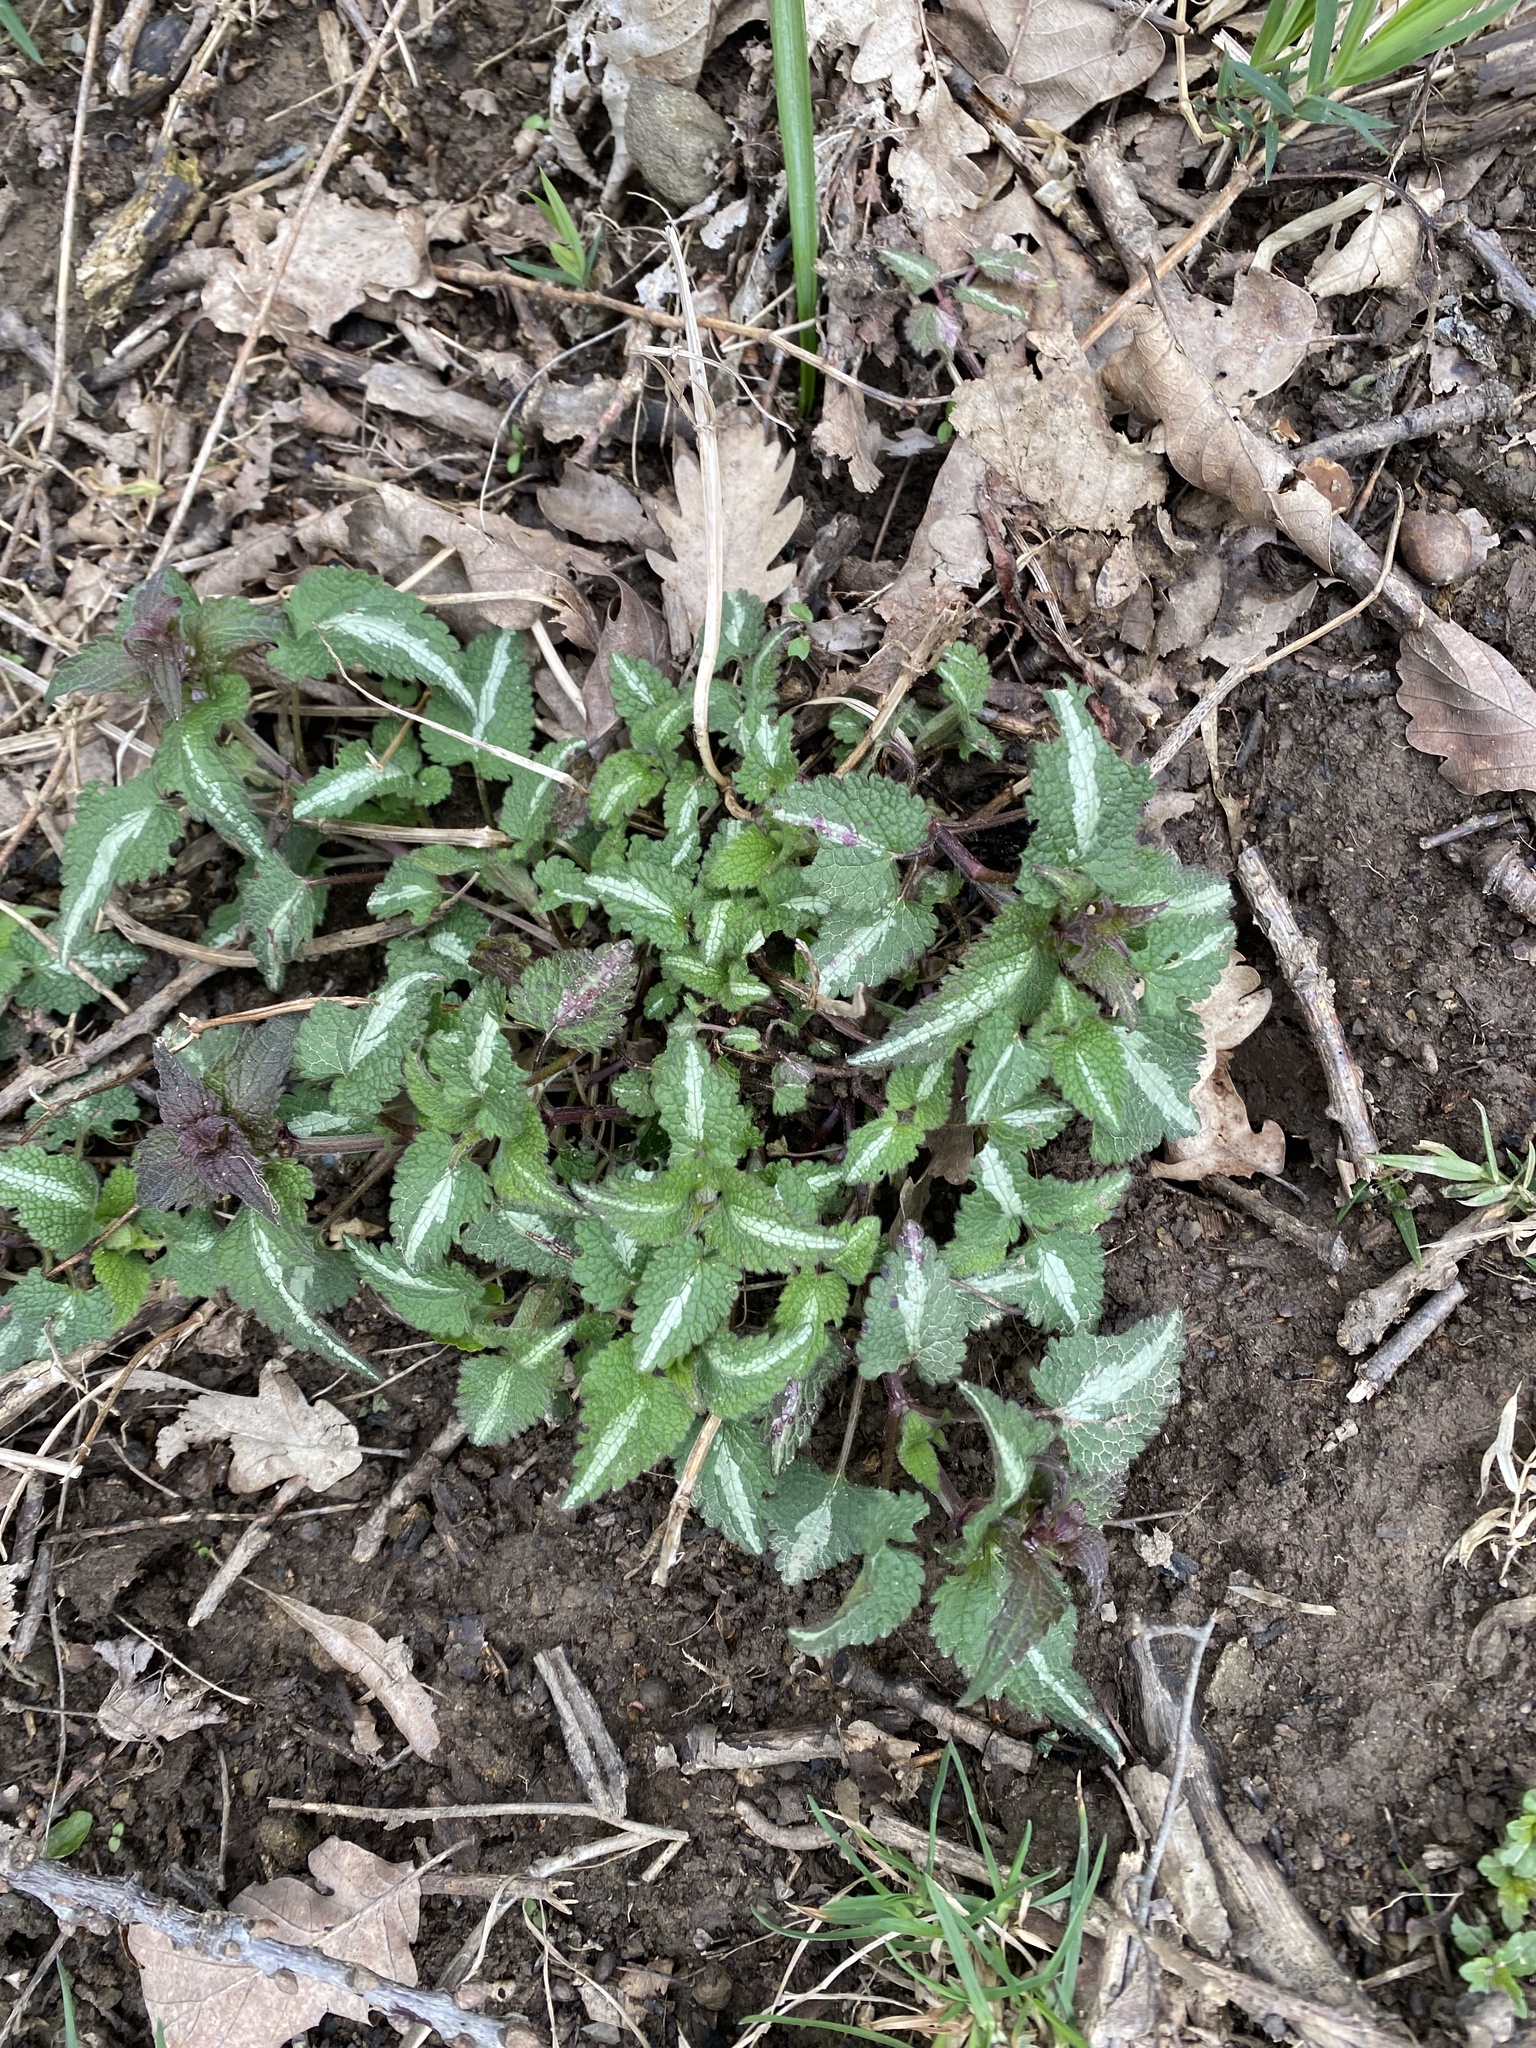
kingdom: Plantae
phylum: Tracheophyta
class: Magnoliopsida
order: Lamiales
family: Lamiaceae
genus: Lamium
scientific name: Lamium maculatum
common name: Spotted dead-nettle
